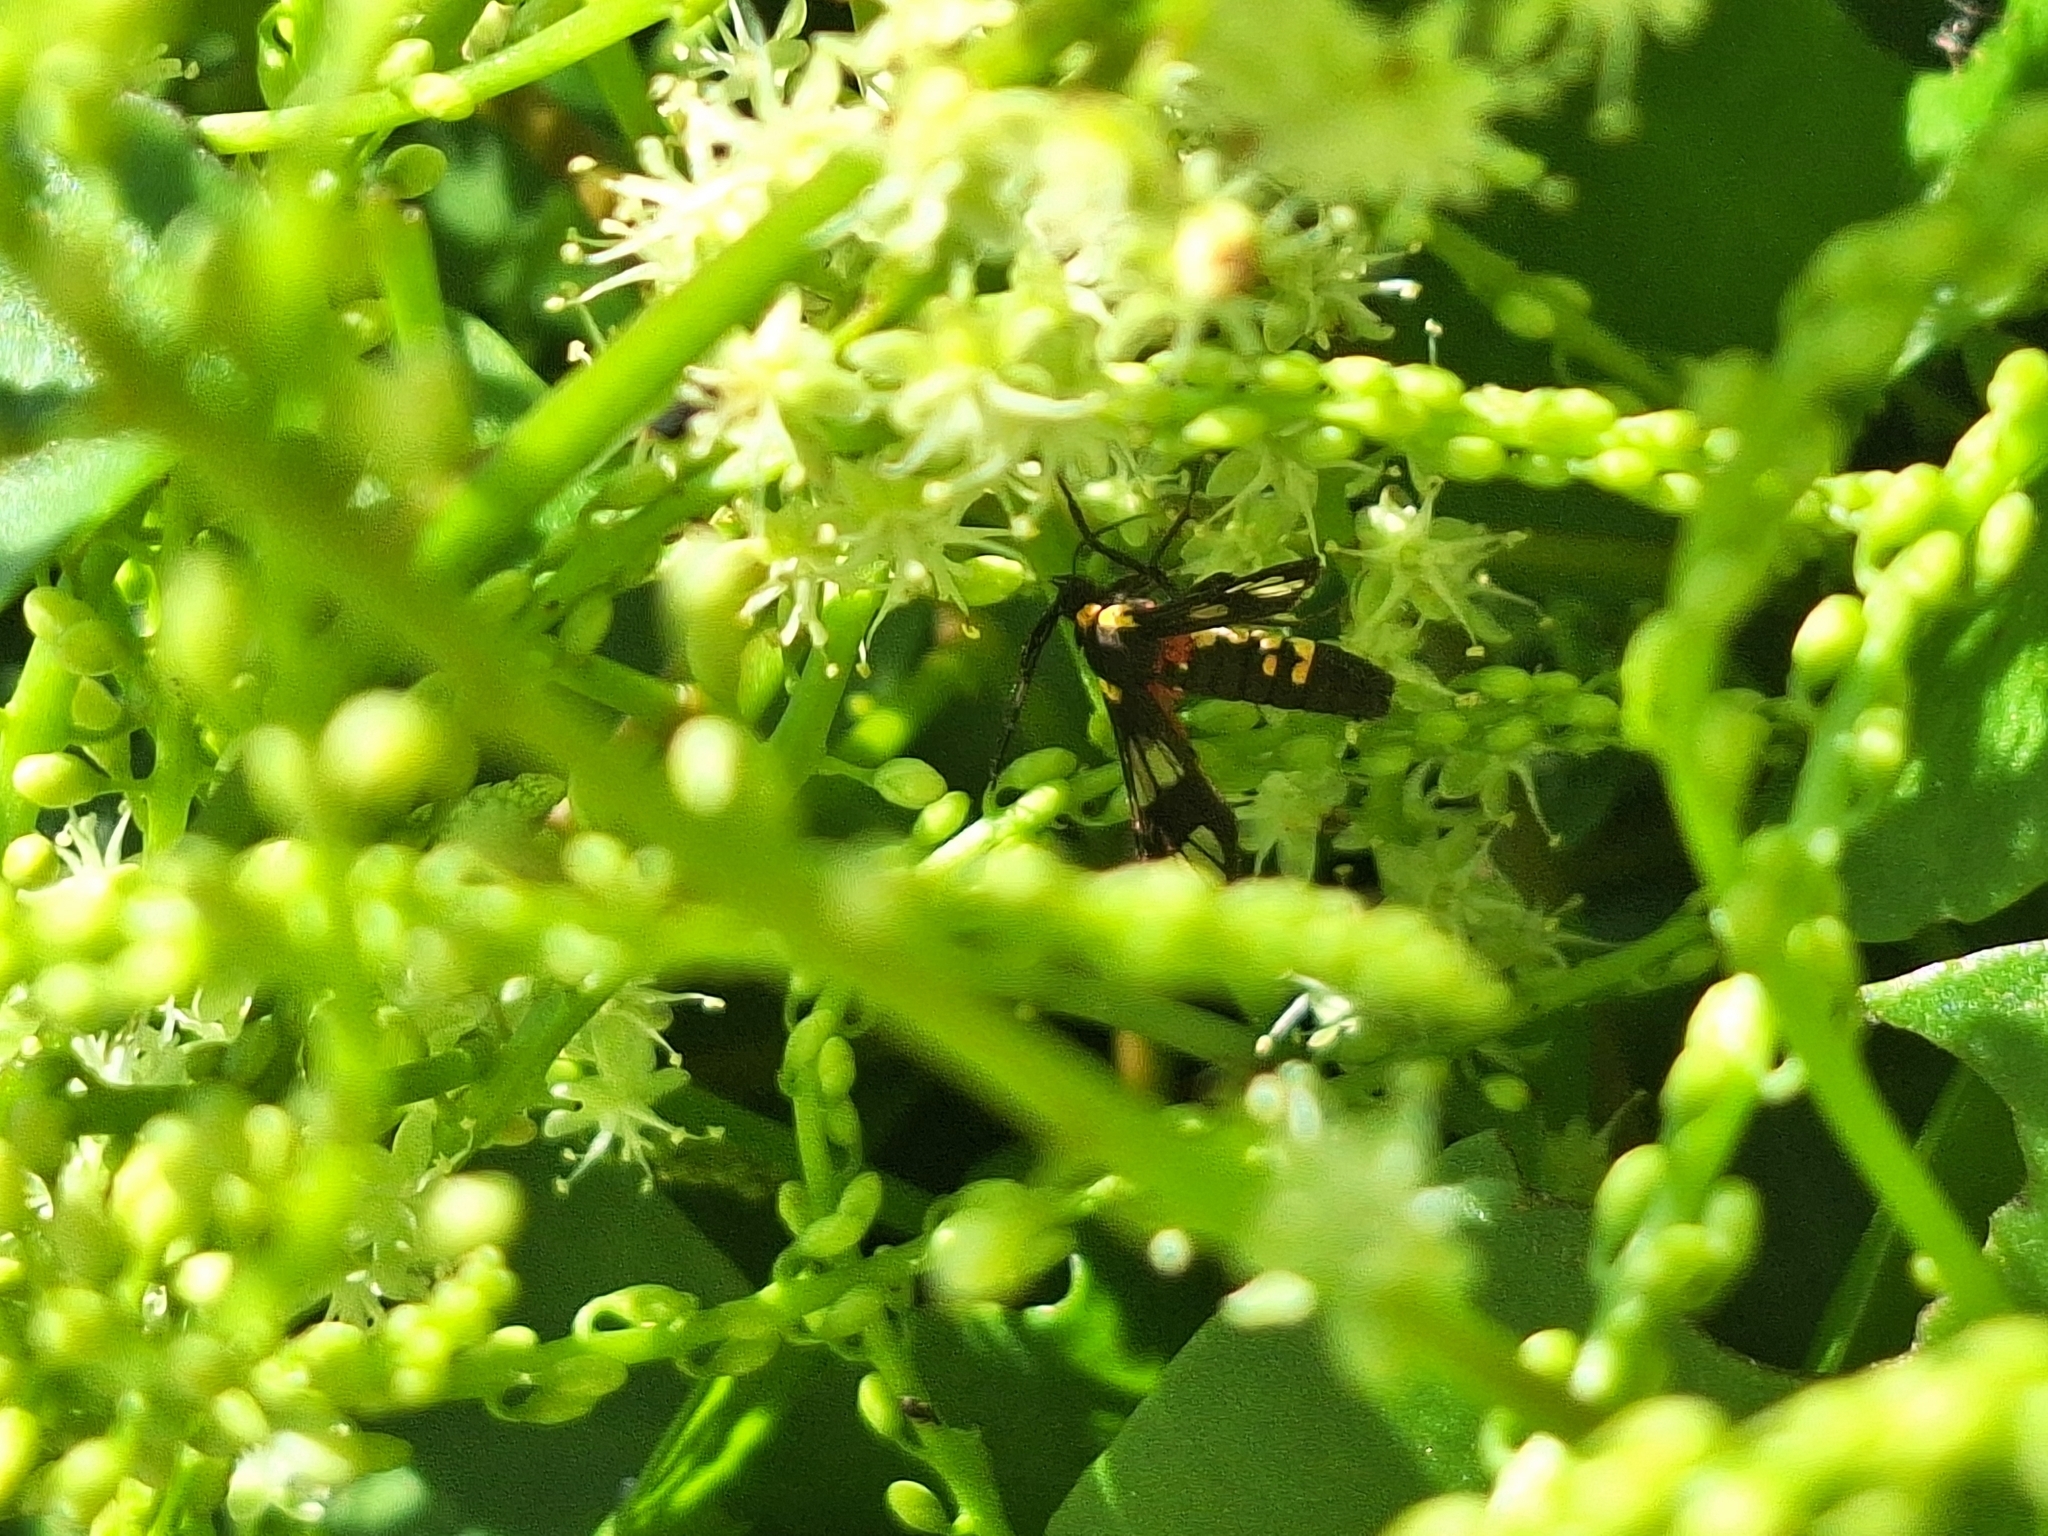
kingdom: Animalia
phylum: Arthropoda
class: Insecta
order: Lepidoptera
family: Erebidae
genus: Eurata
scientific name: Eurata hermione
